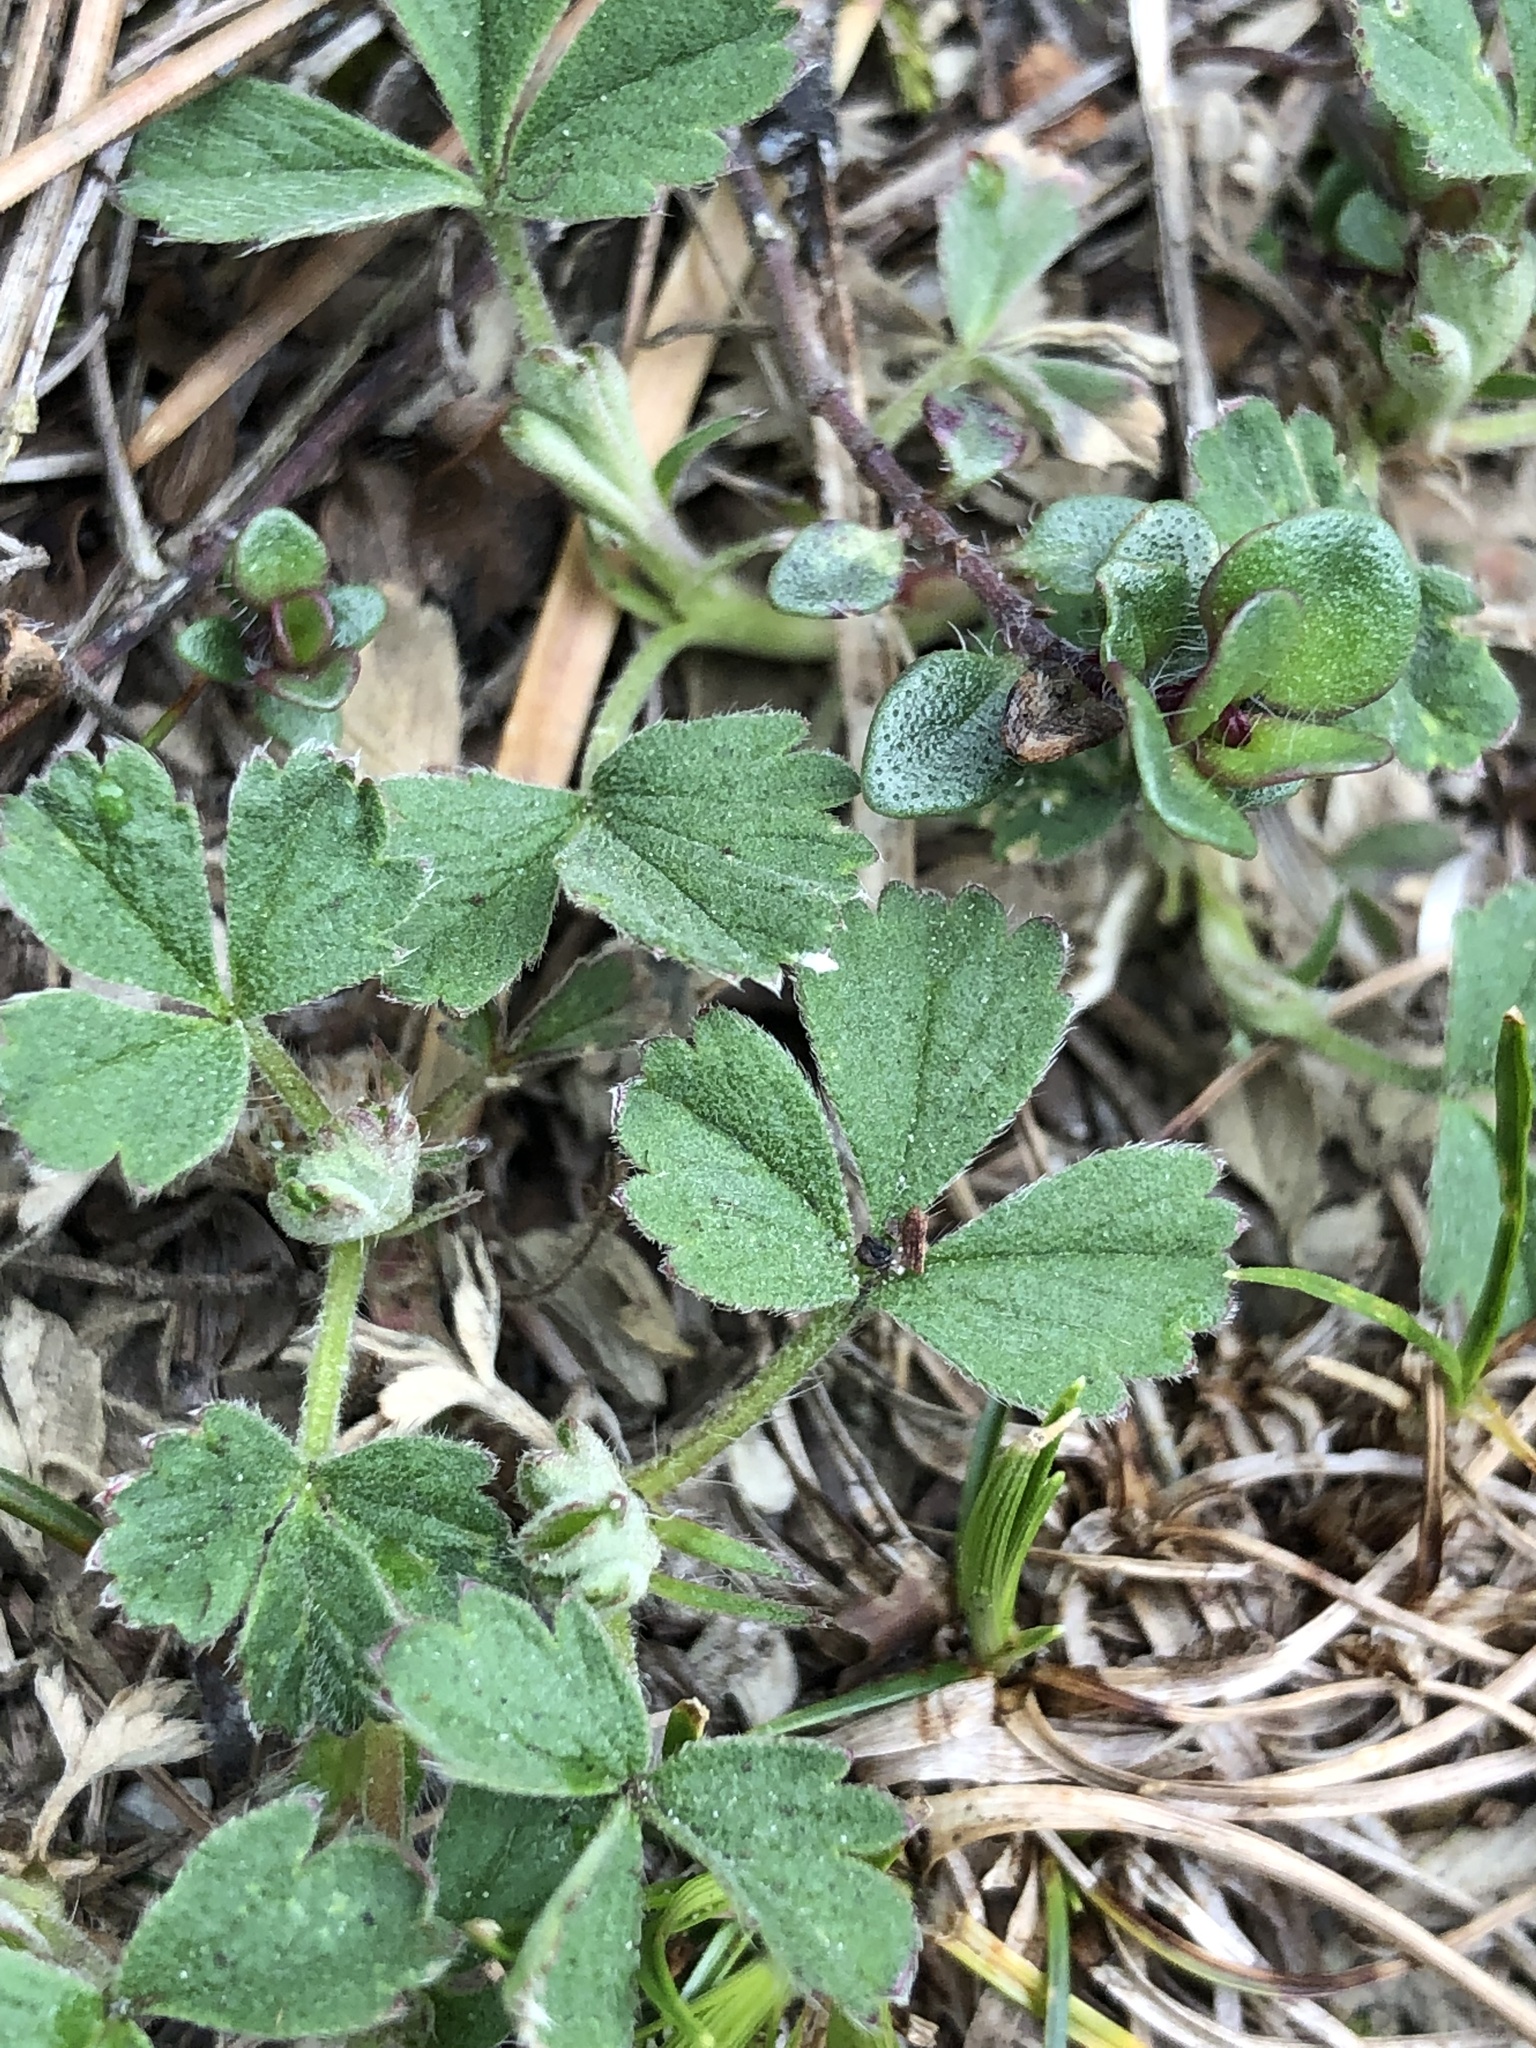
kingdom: Plantae
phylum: Tracheophyta
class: Magnoliopsida
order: Rosales
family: Rosaceae
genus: Potentilla
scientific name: Potentilla incana
